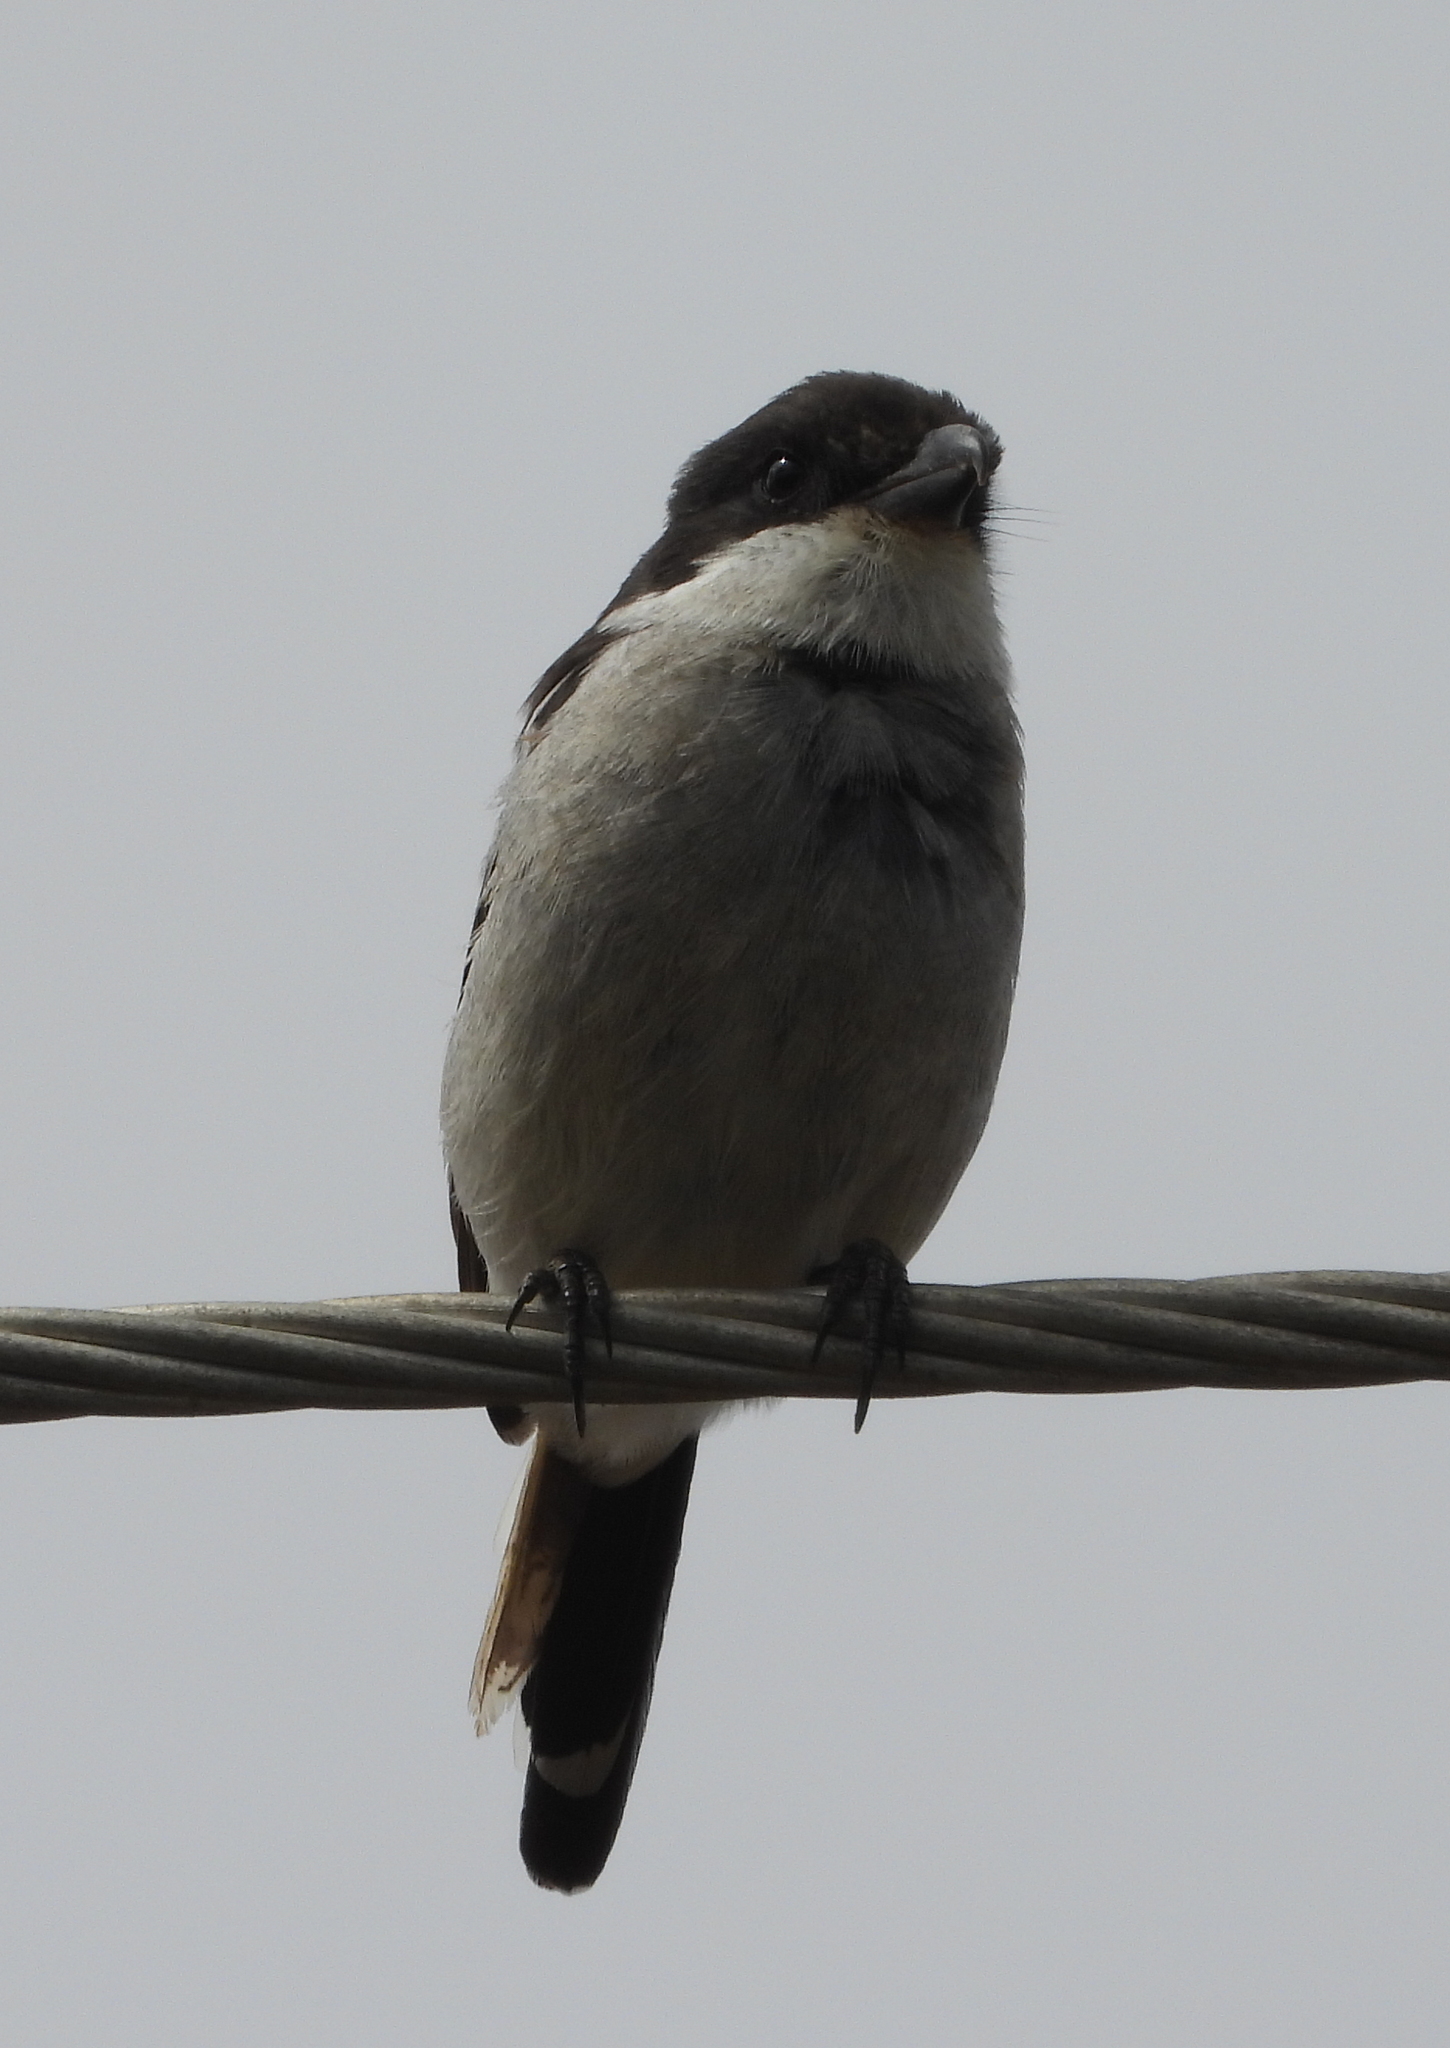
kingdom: Animalia
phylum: Chordata
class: Aves
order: Passeriformes
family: Laniidae
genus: Lanius
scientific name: Lanius collaris
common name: Southern fiscal
